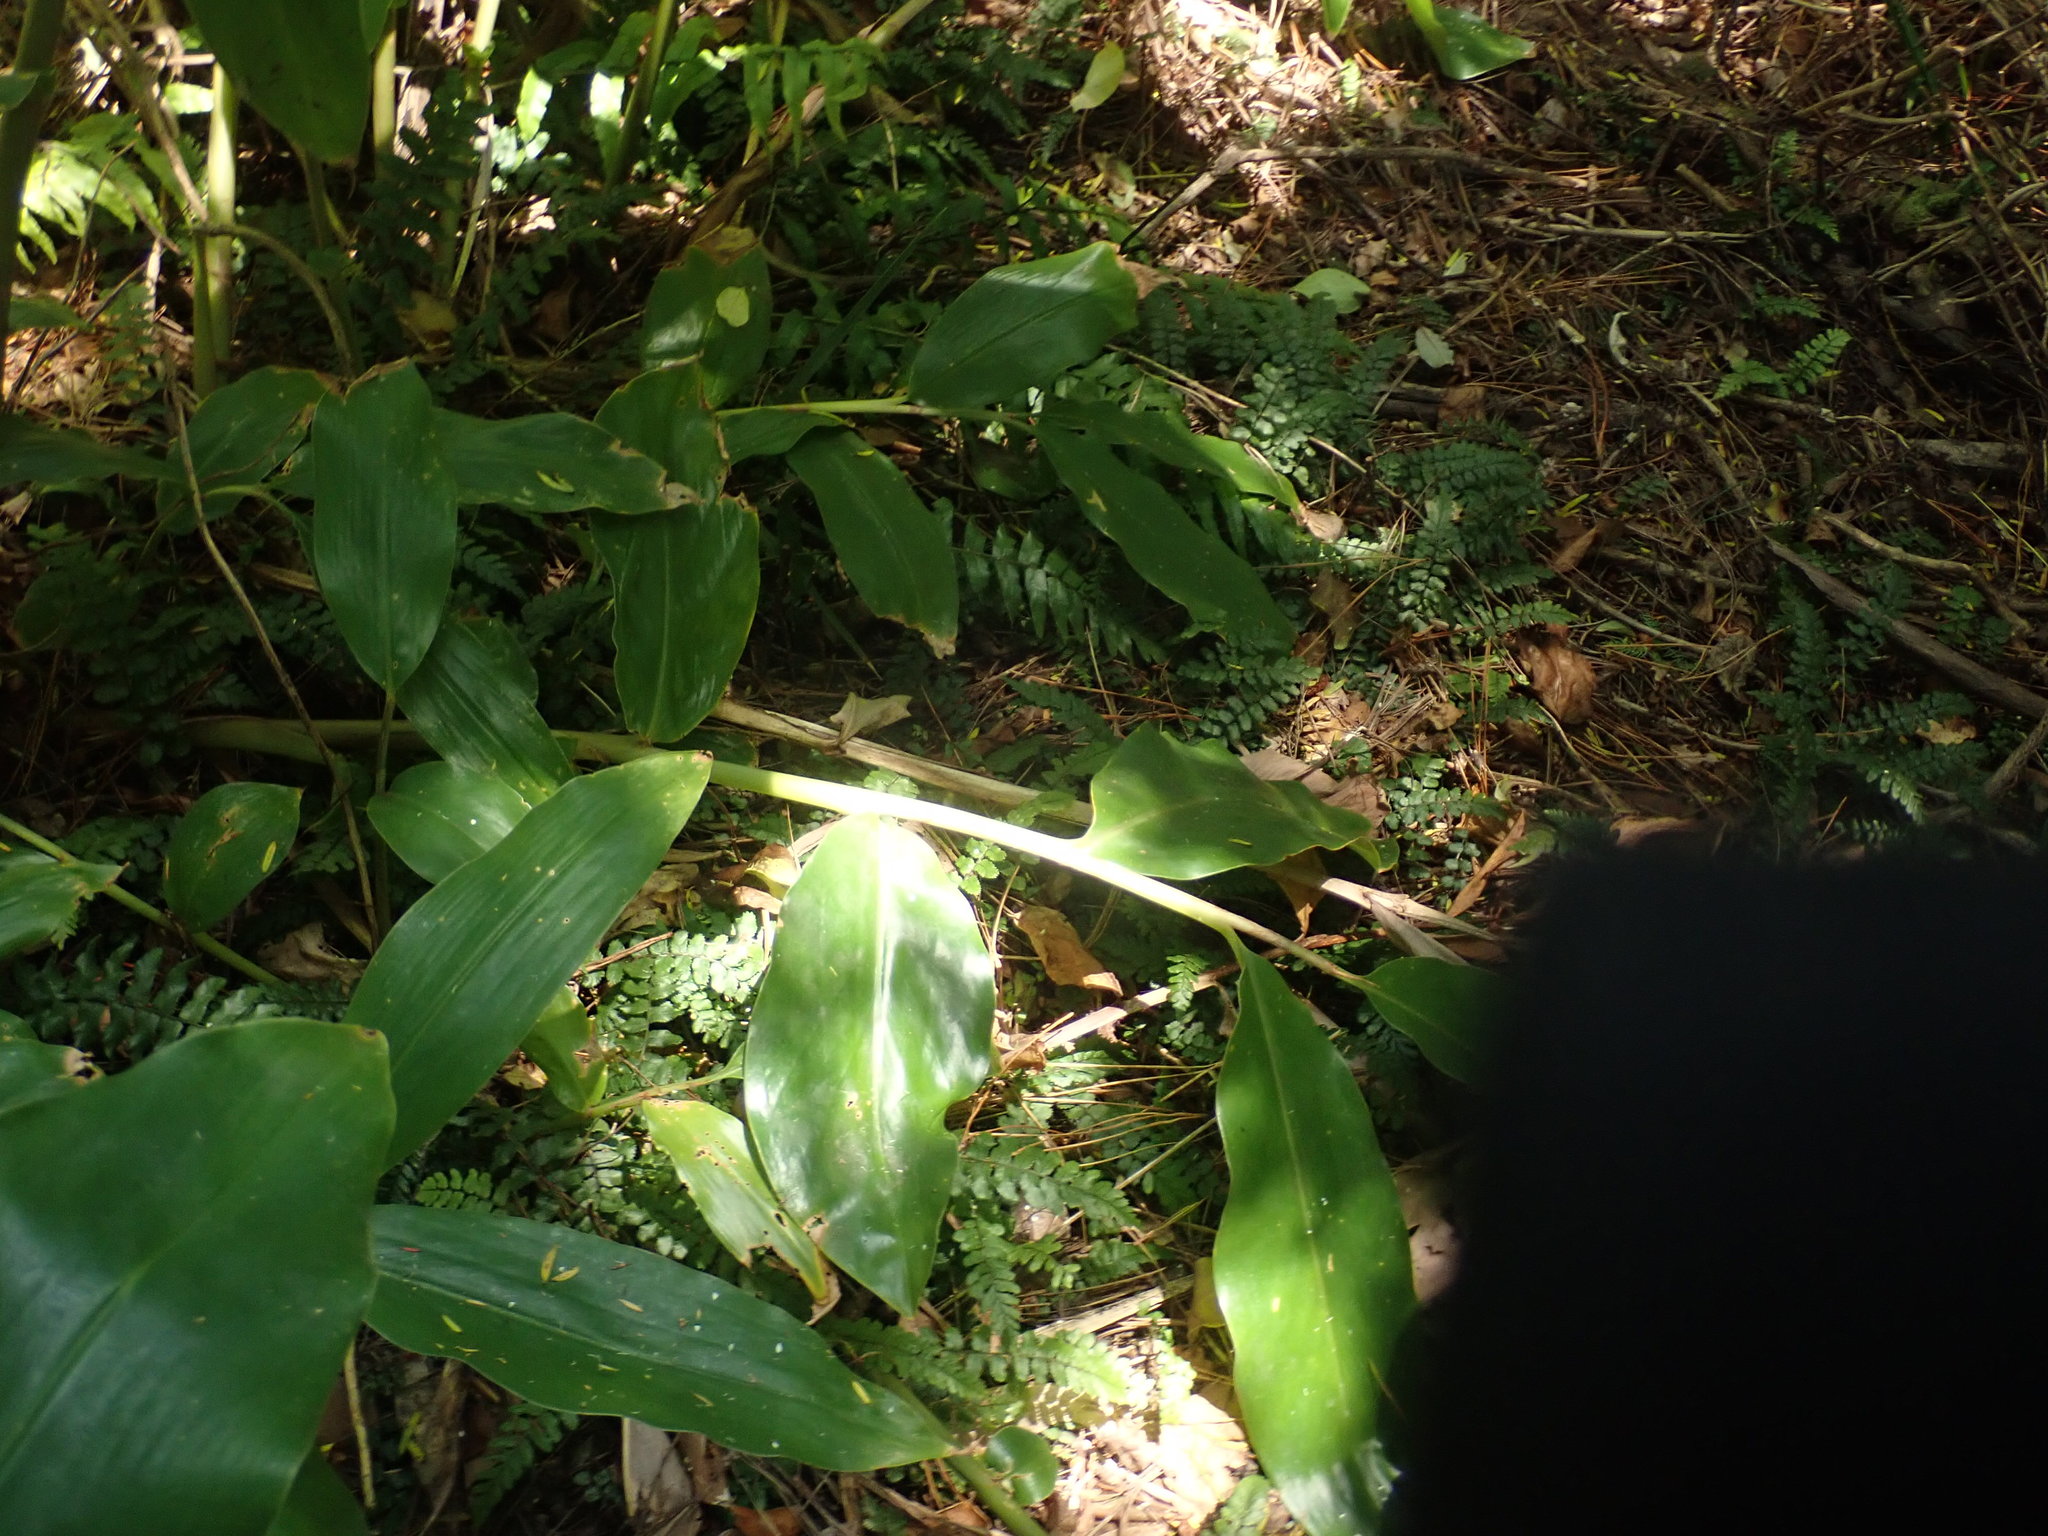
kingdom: Plantae
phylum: Tracheophyta
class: Polypodiopsida
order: Polypodiales
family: Blechnaceae
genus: Icarus
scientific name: Icarus filiformis
